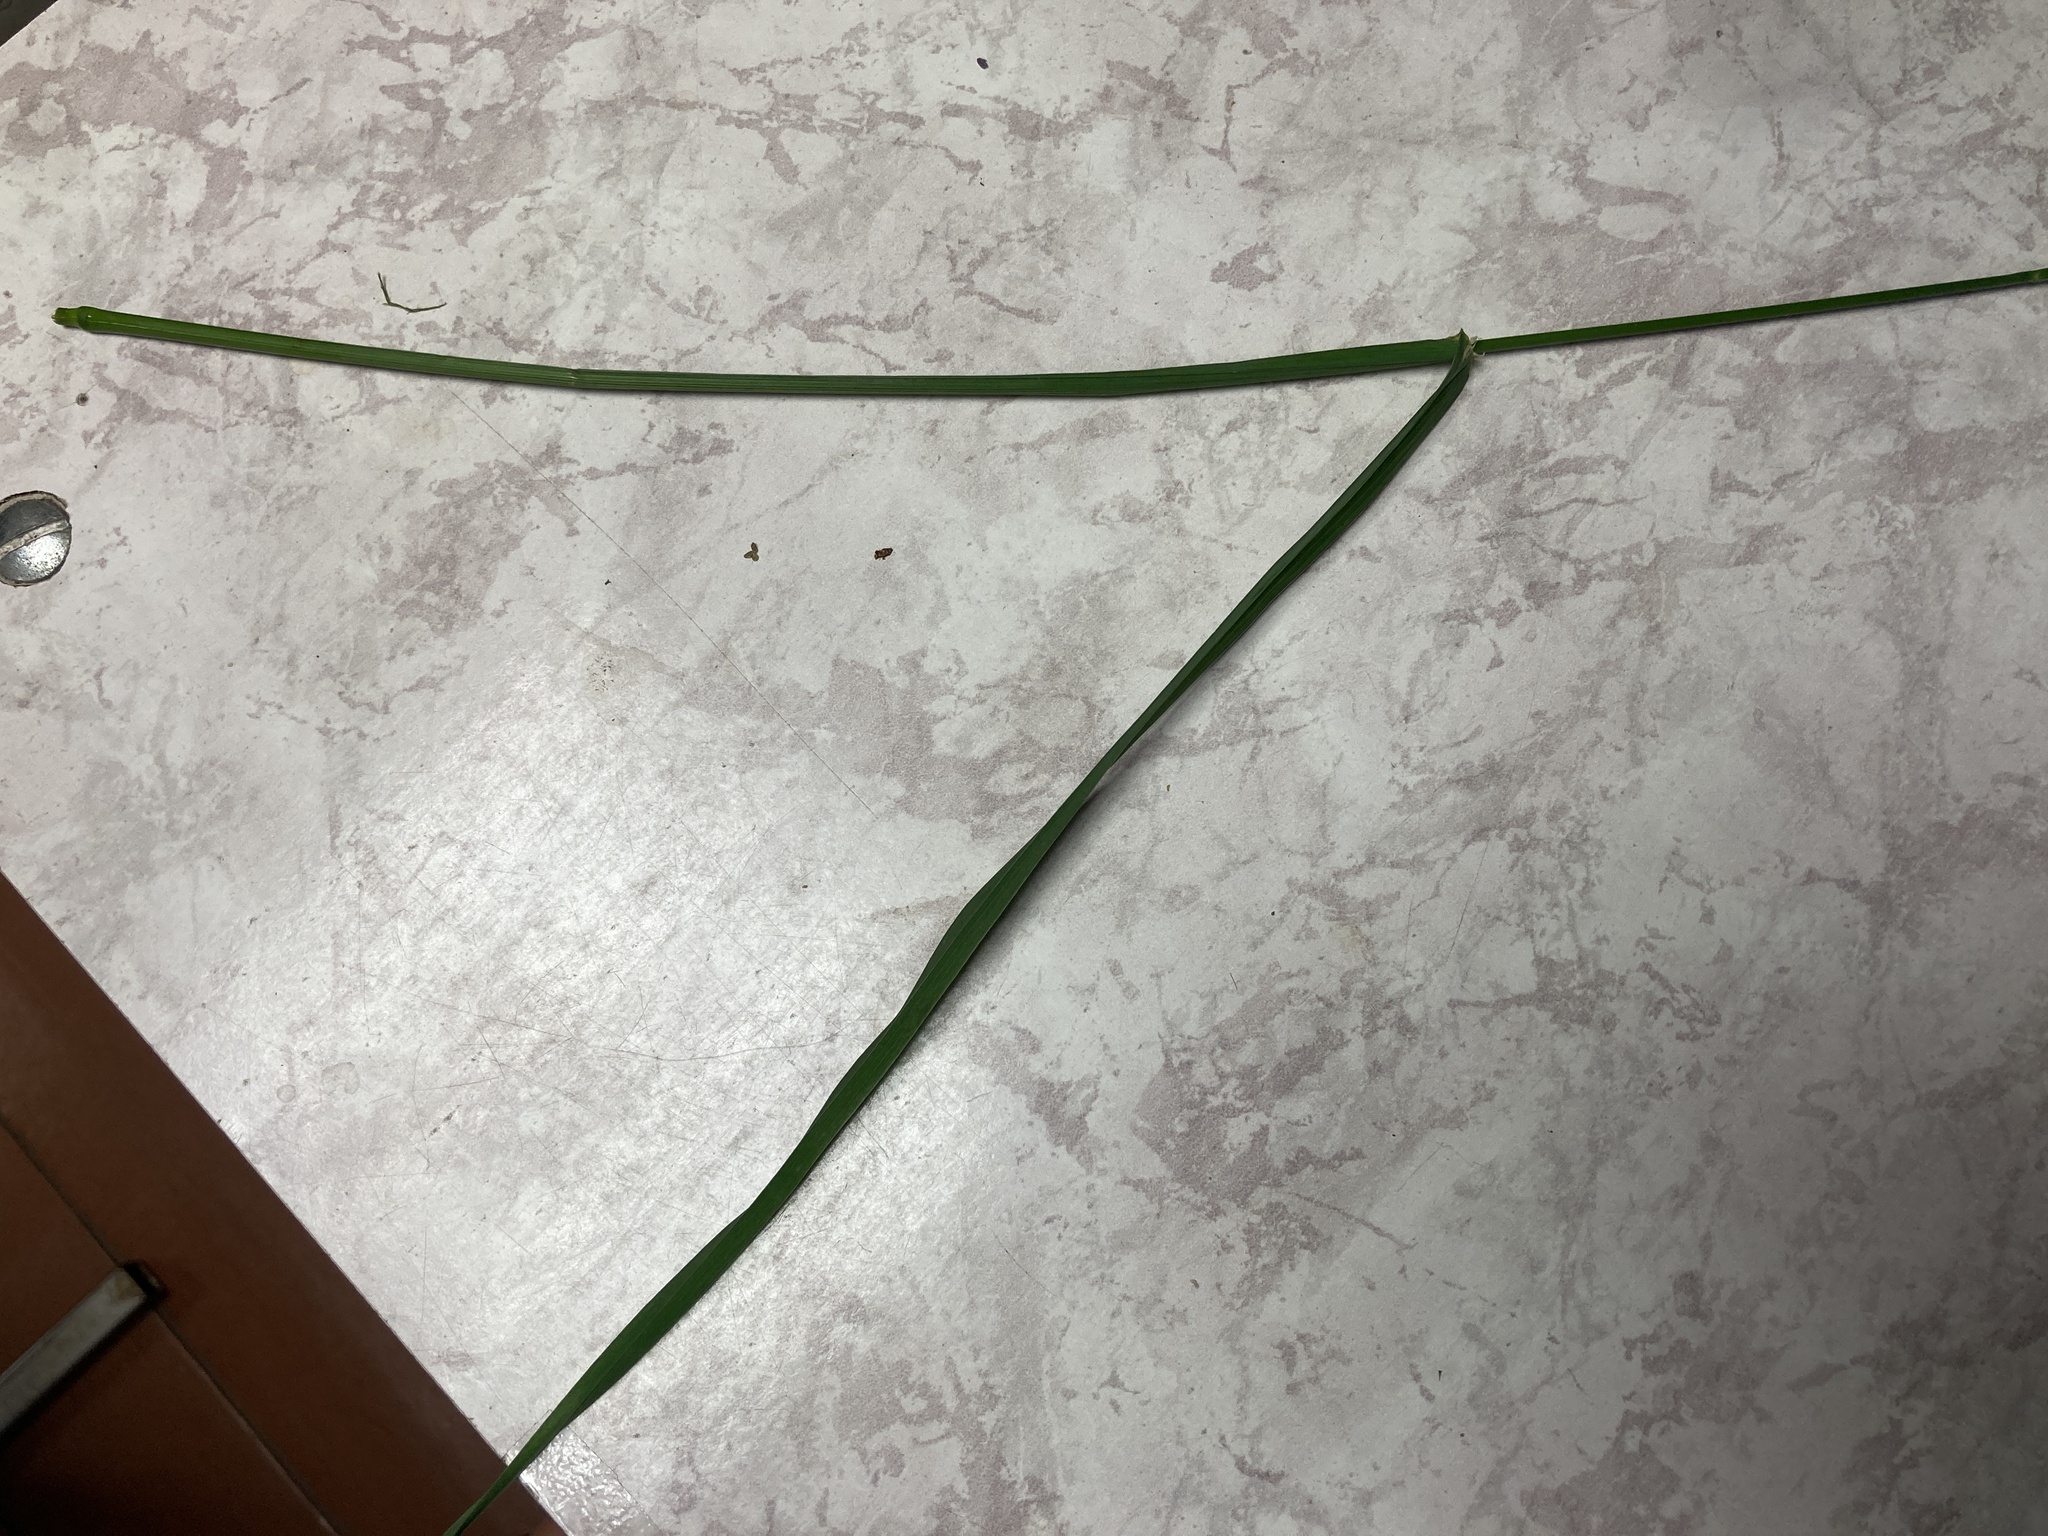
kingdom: Plantae
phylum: Tracheophyta
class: Liliopsida
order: Poales
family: Poaceae
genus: Dactylis
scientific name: Dactylis glomerata
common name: Orchardgrass
